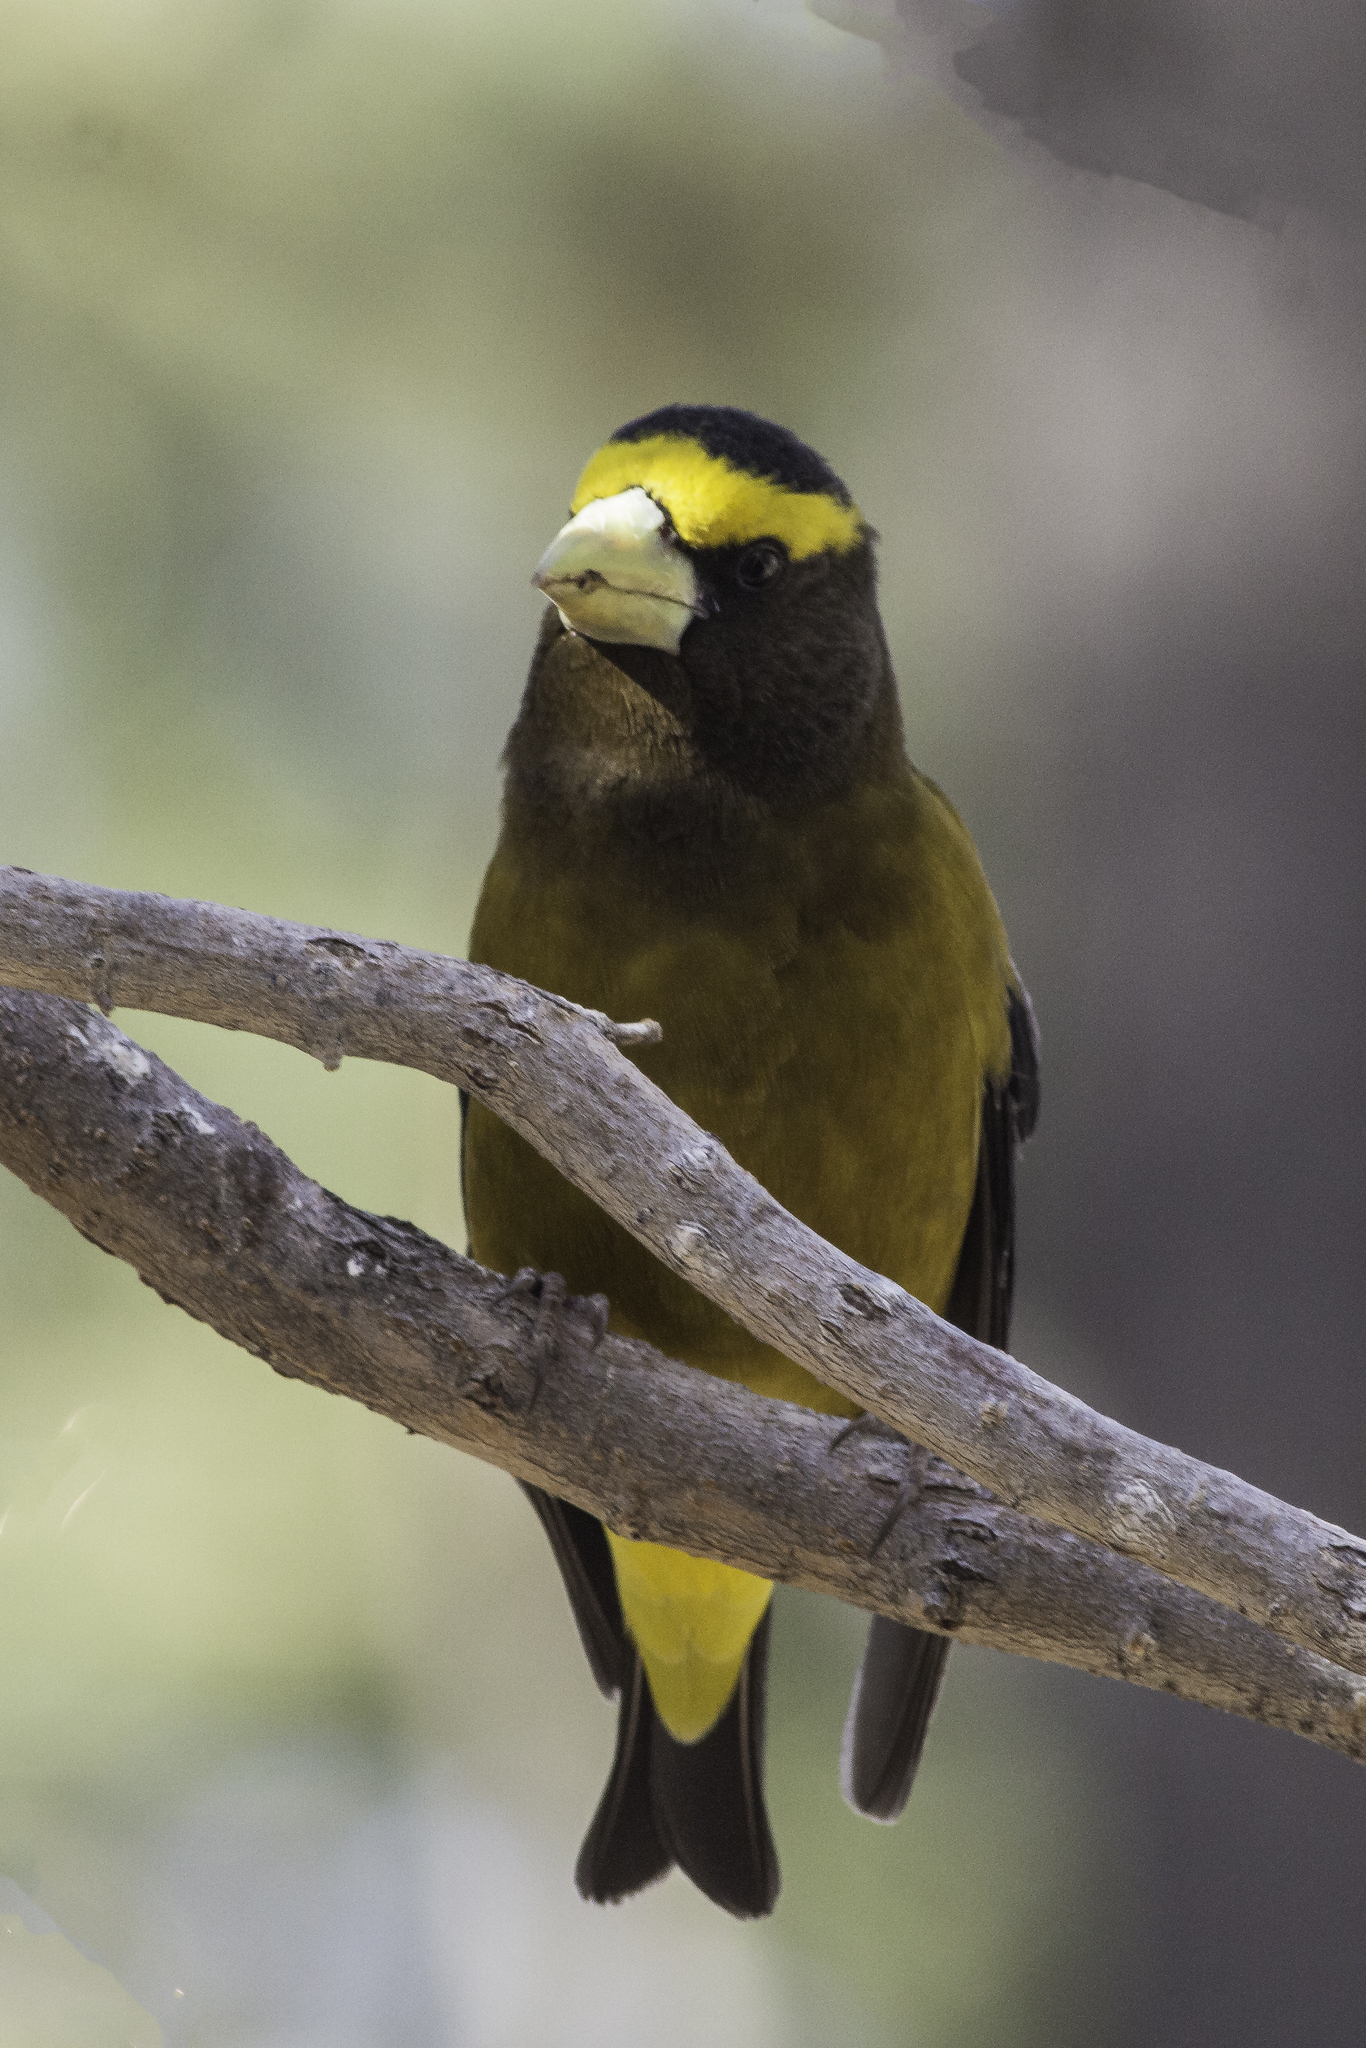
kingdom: Animalia
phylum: Chordata
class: Aves
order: Passeriformes
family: Fringillidae
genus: Hesperiphona
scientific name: Hesperiphona vespertina
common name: Evening grosbeak
